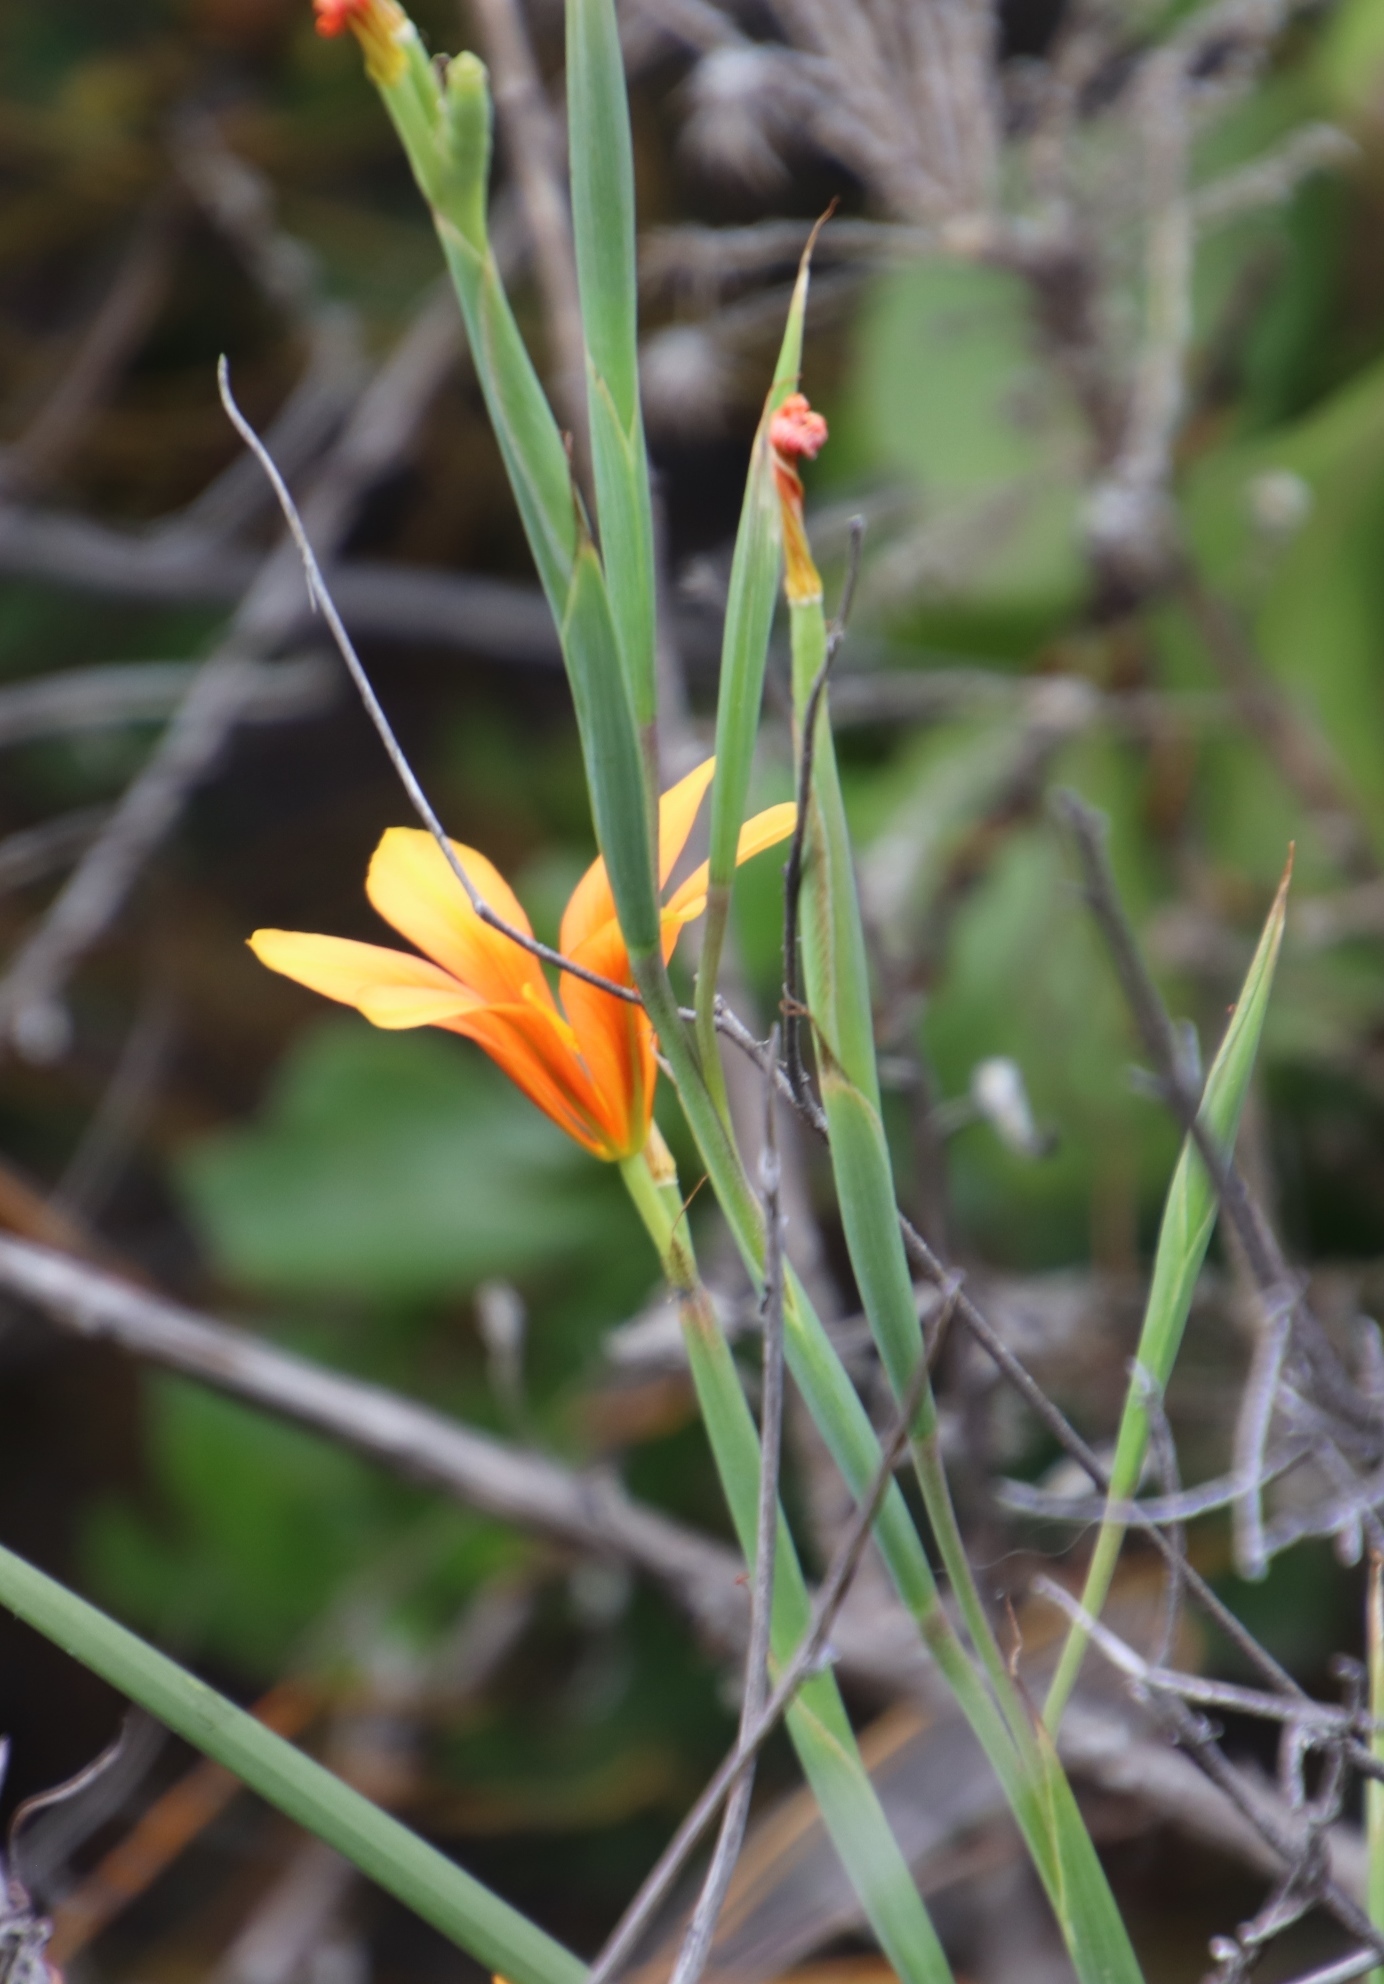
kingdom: Plantae
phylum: Tracheophyta
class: Liliopsida
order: Asparagales
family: Iridaceae
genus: Moraea
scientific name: Moraea ochroleuca
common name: Red tulp
